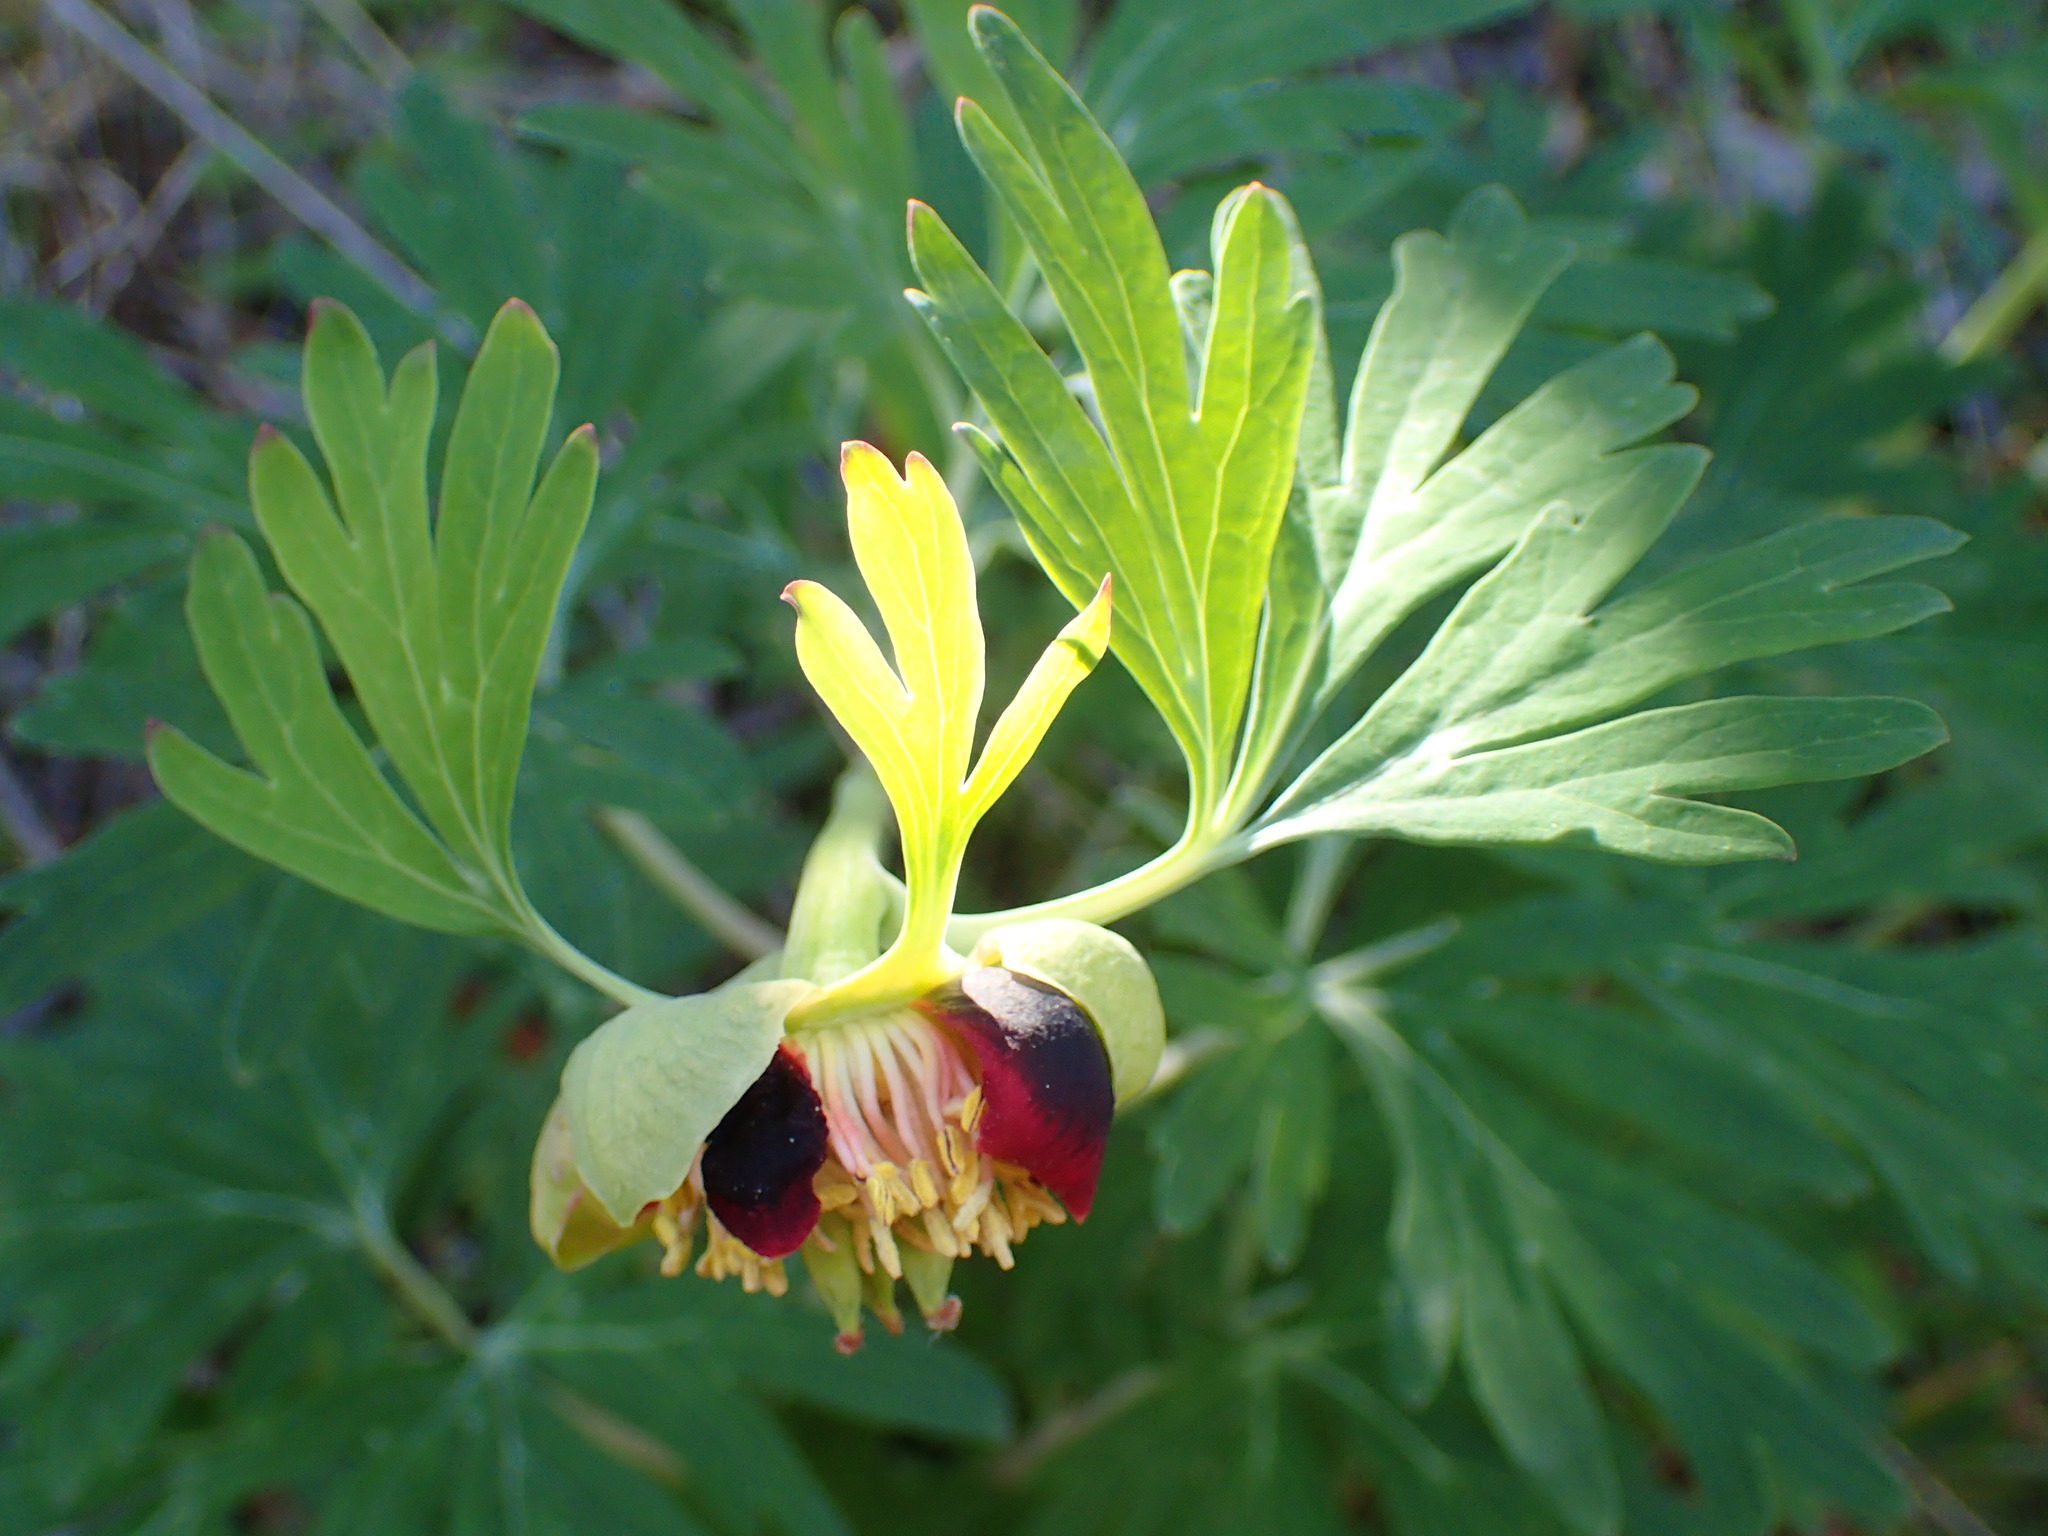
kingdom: Plantae
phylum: Tracheophyta
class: Magnoliopsida
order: Saxifragales
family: Paeoniaceae
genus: Paeonia
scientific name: Paeonia californica
